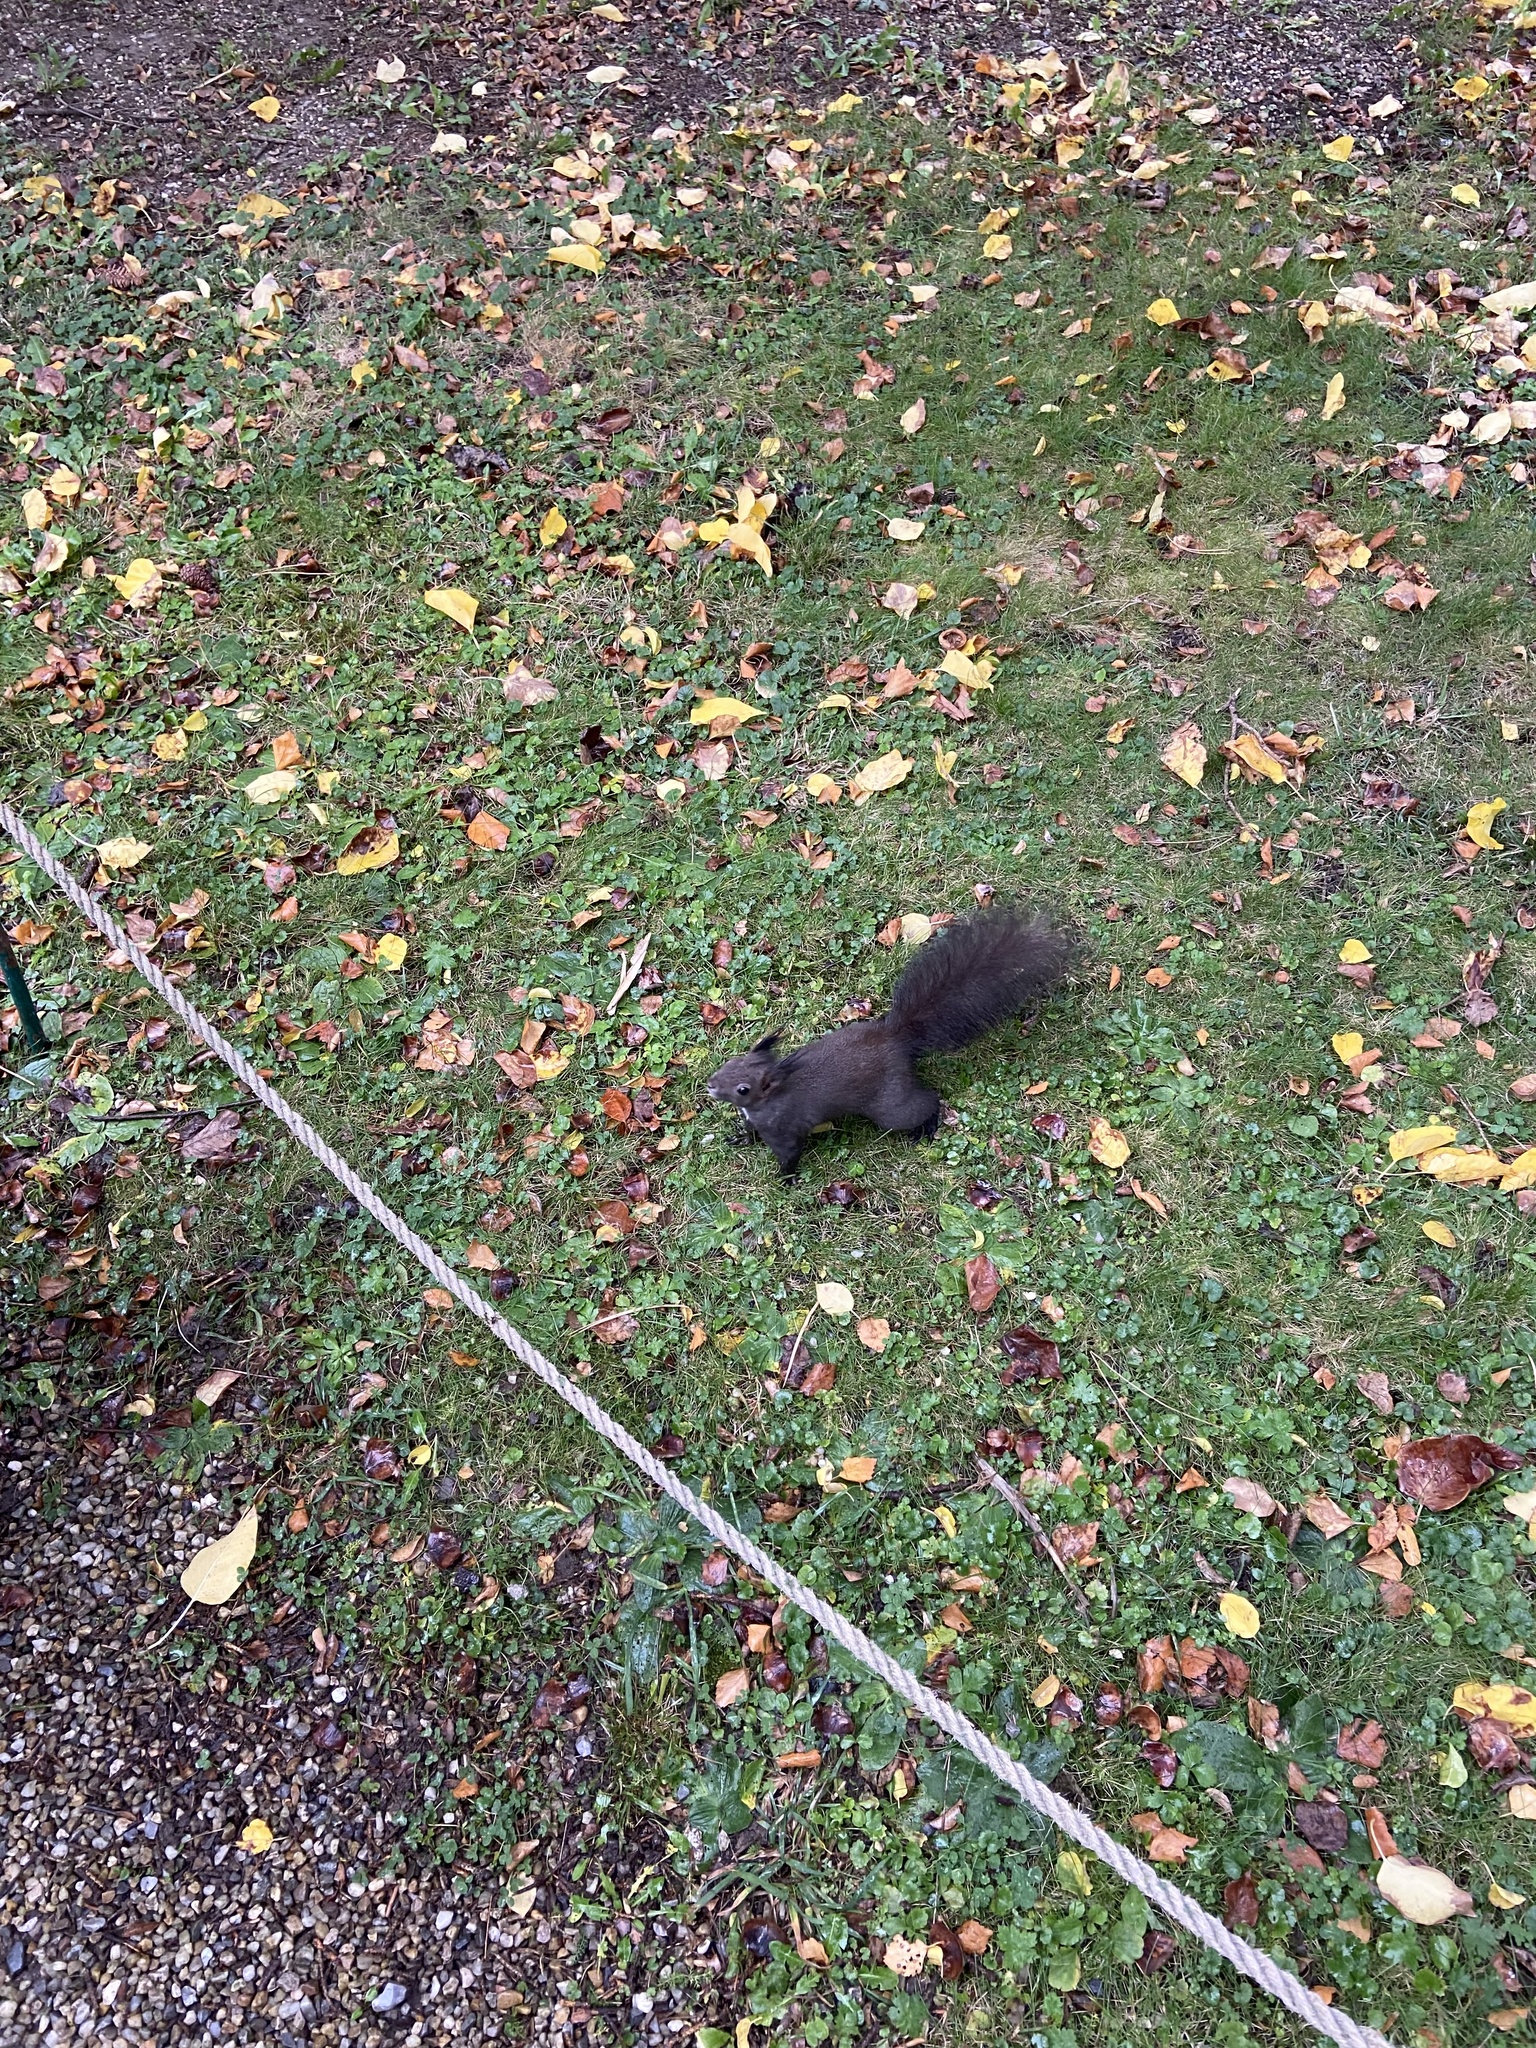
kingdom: Animalia
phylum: Chordata
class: Mammalia
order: Rodentia
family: Sciuridae
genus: Sciurus
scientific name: Sciurus vulgaris
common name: Eurasian red squirrel
